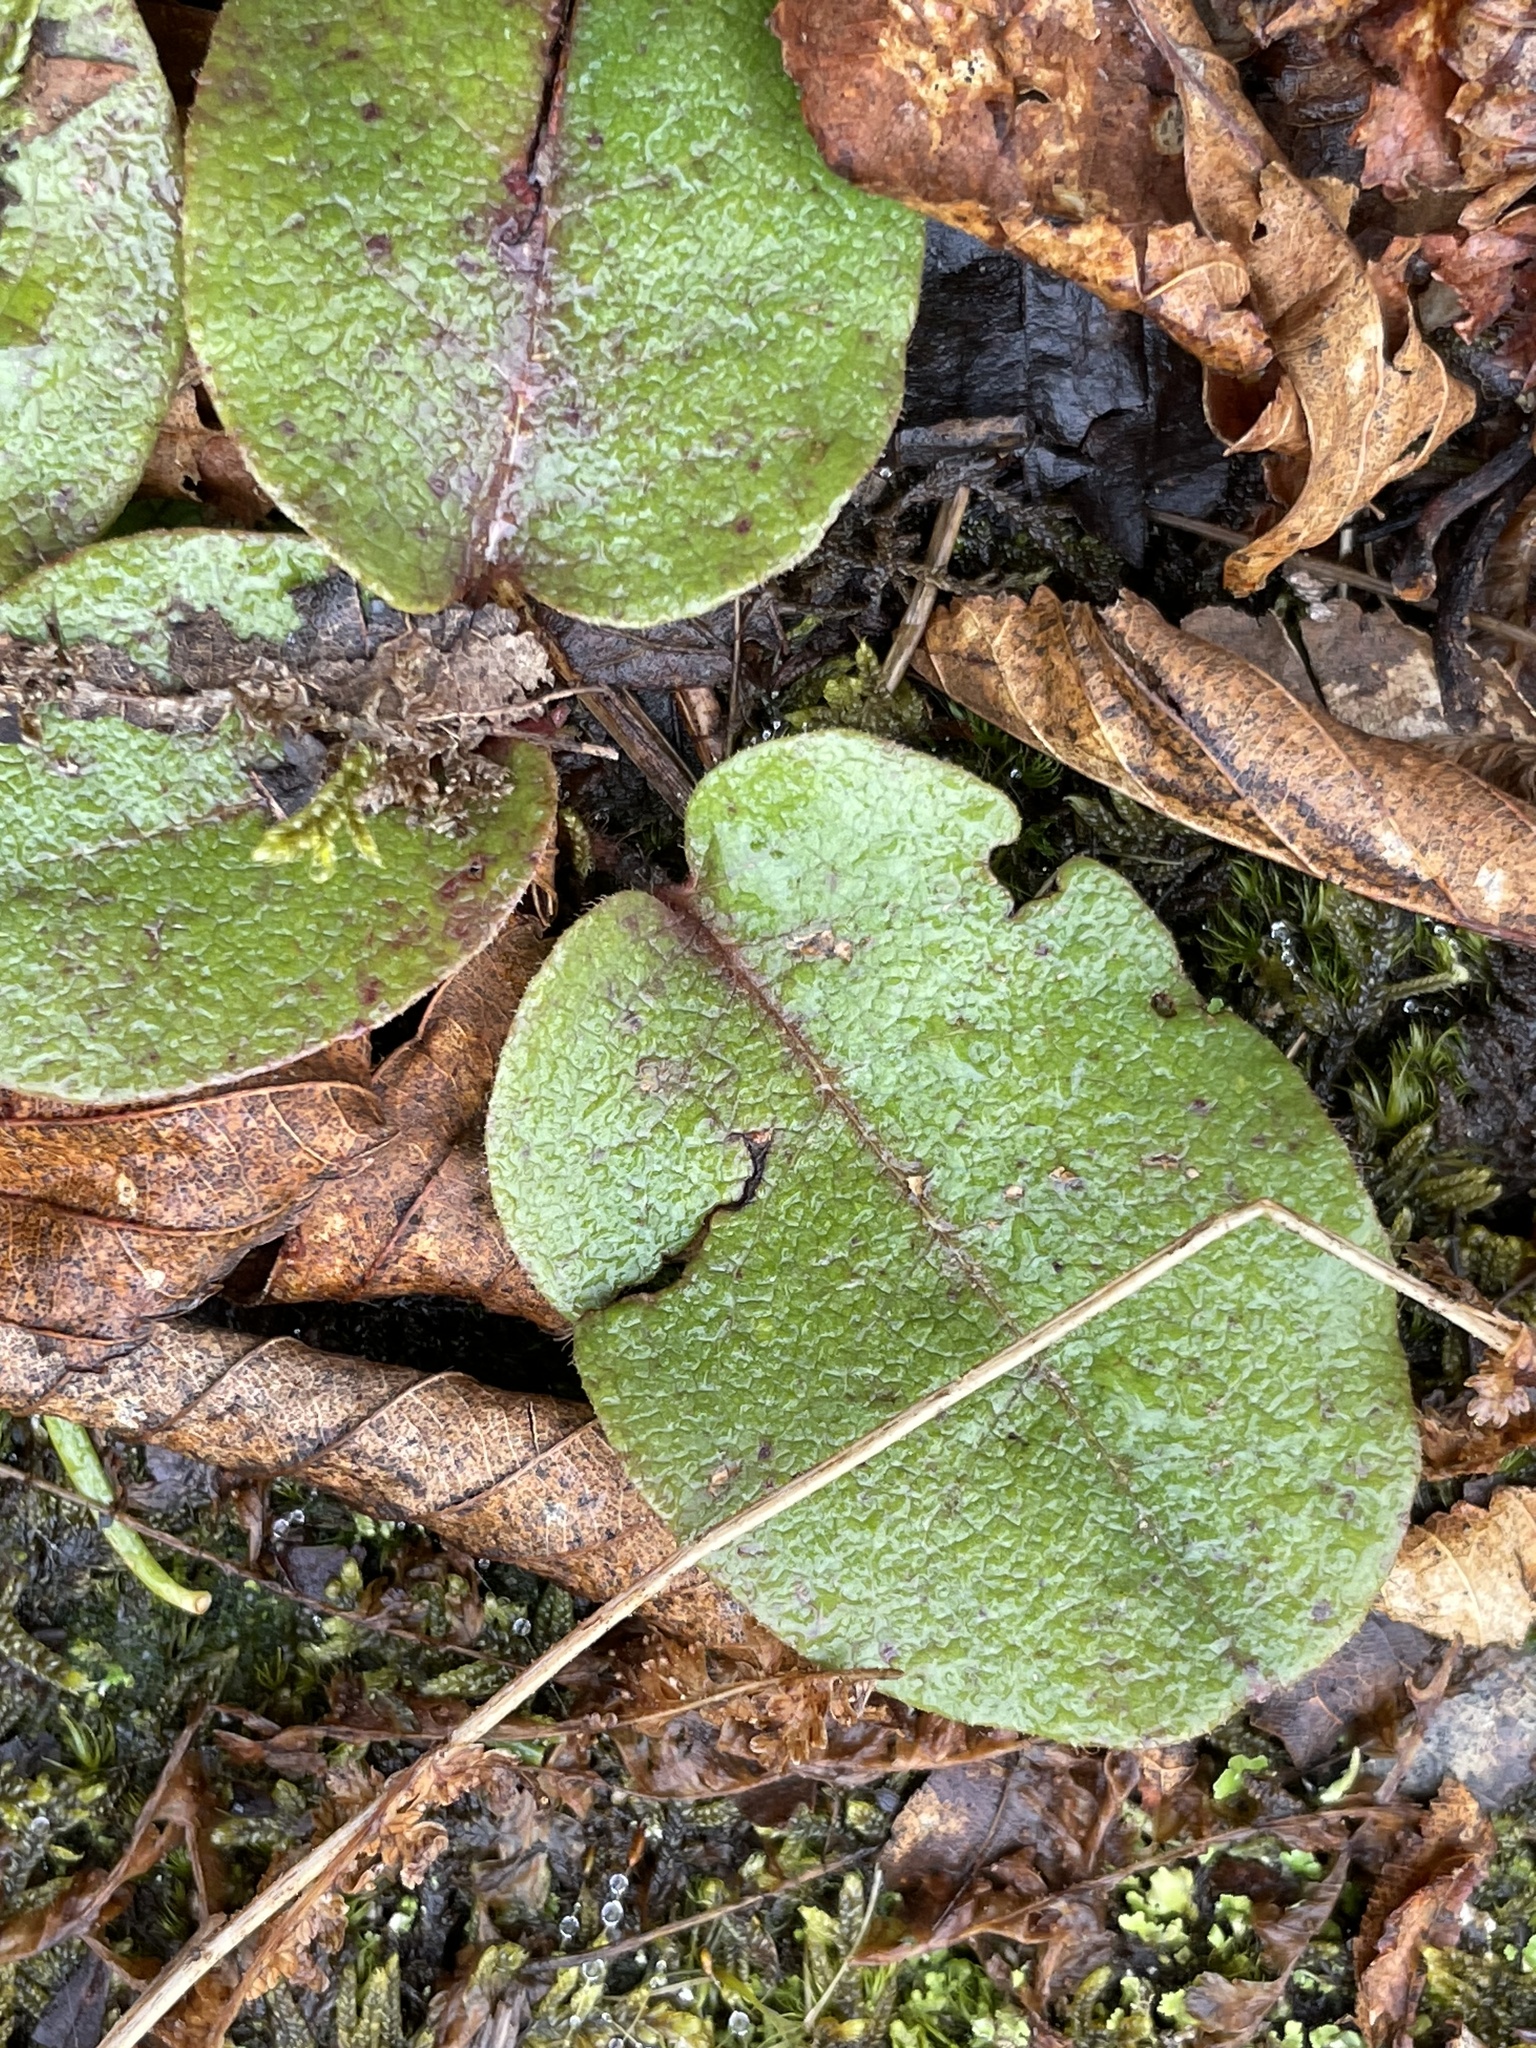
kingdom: Plantae
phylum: Tracheophyta
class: Magnoliopsida
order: Ericales
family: Ericaceae
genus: Epigaea
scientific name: Epigaea repens
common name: Gravelroot
